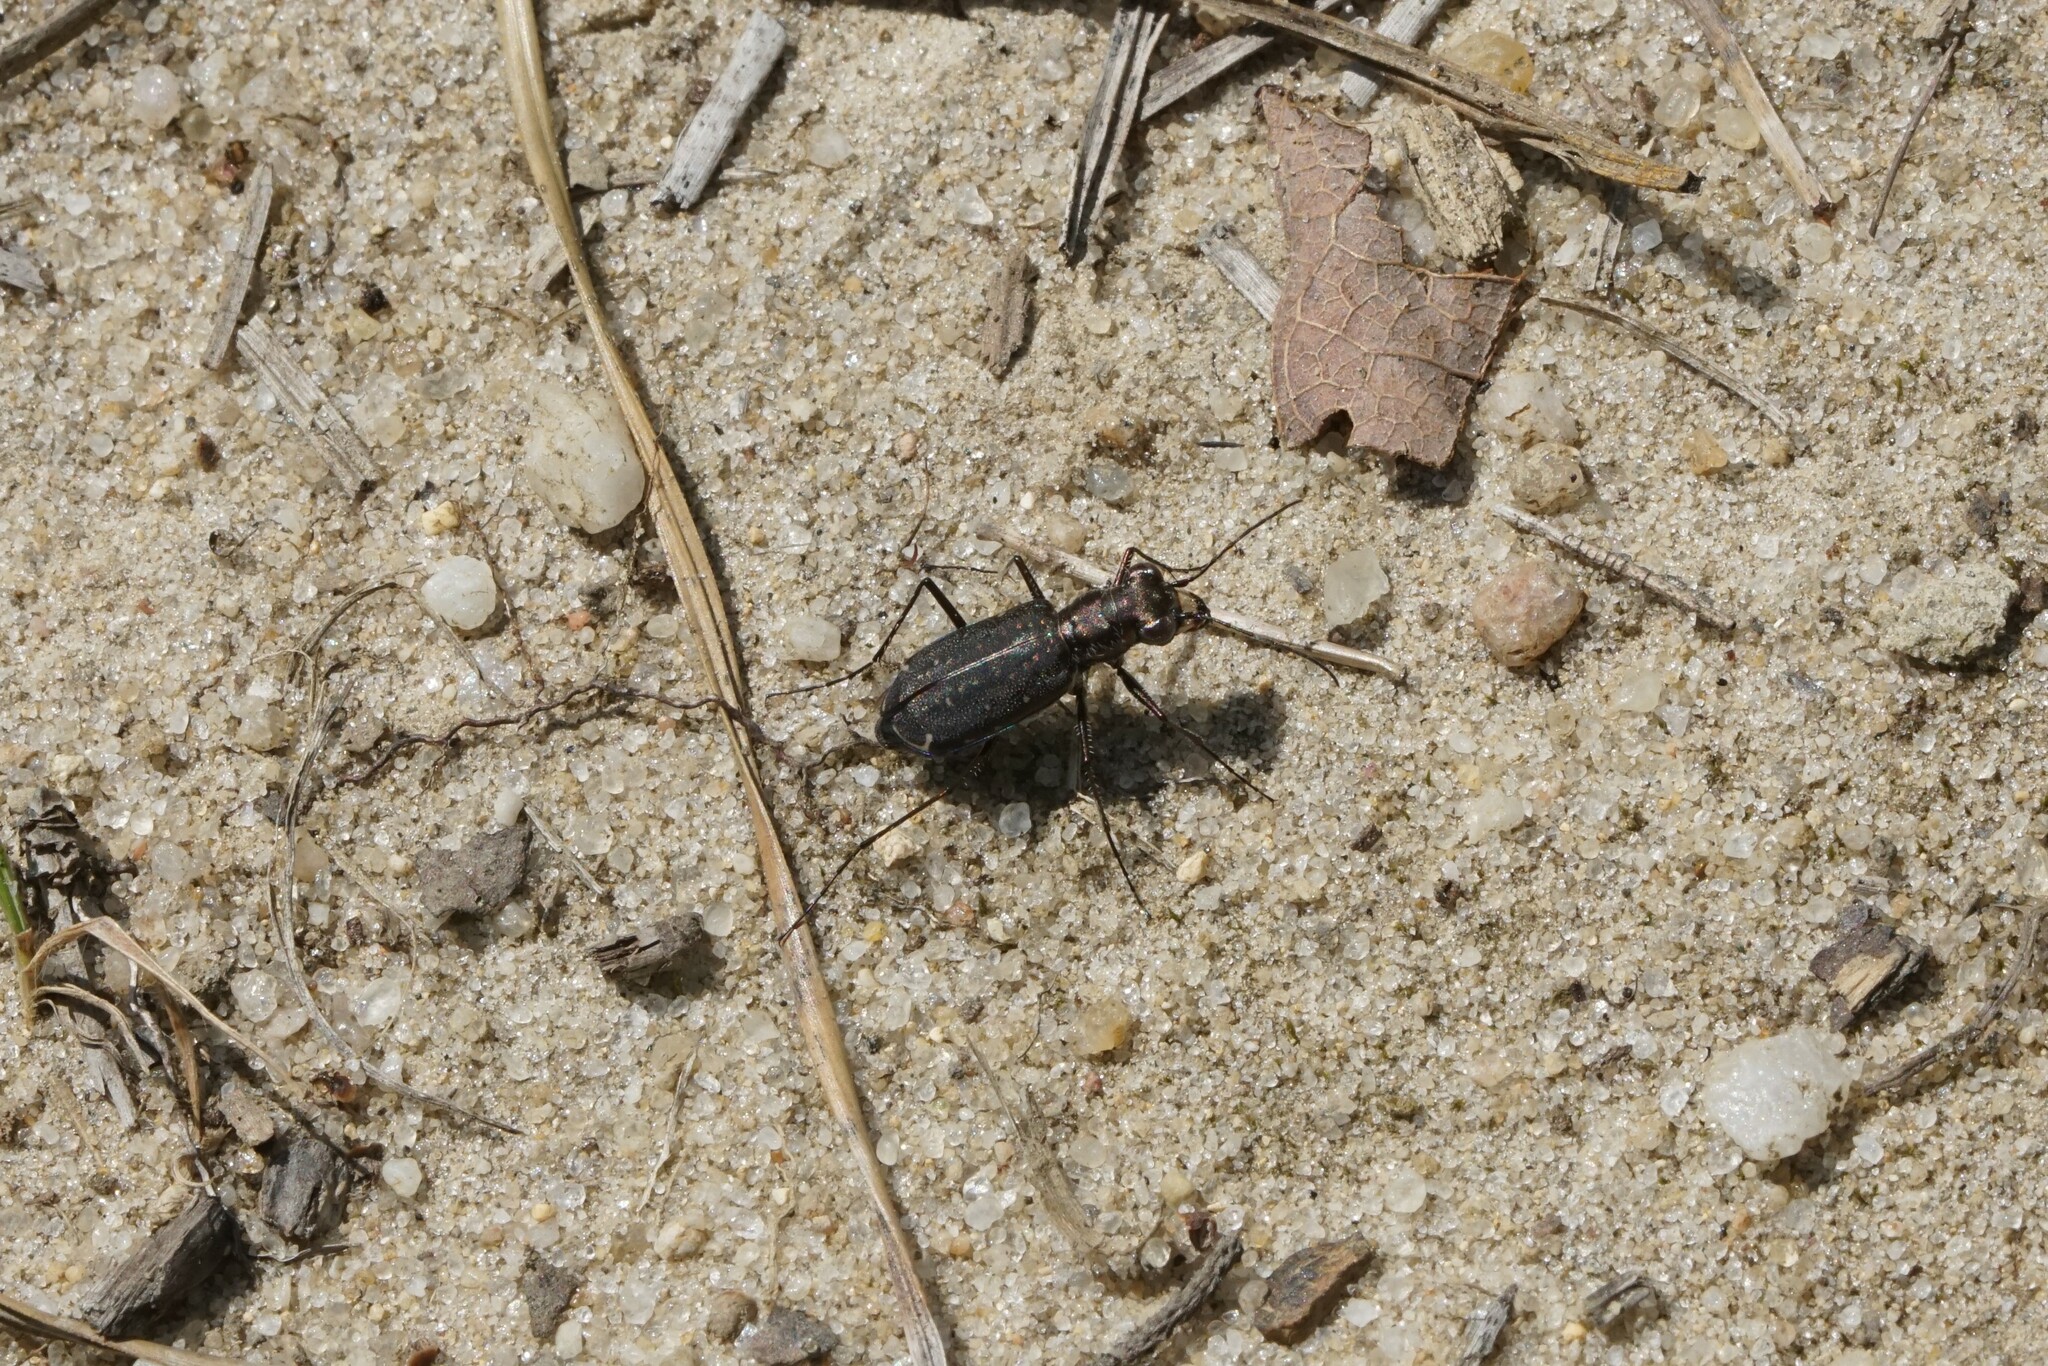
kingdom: Animalia
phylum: Arthropoda
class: Insecta
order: Coleoptera
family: Carabidae
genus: Cicindela
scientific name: Cicindela punctulata
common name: Punctured tiger beetle
